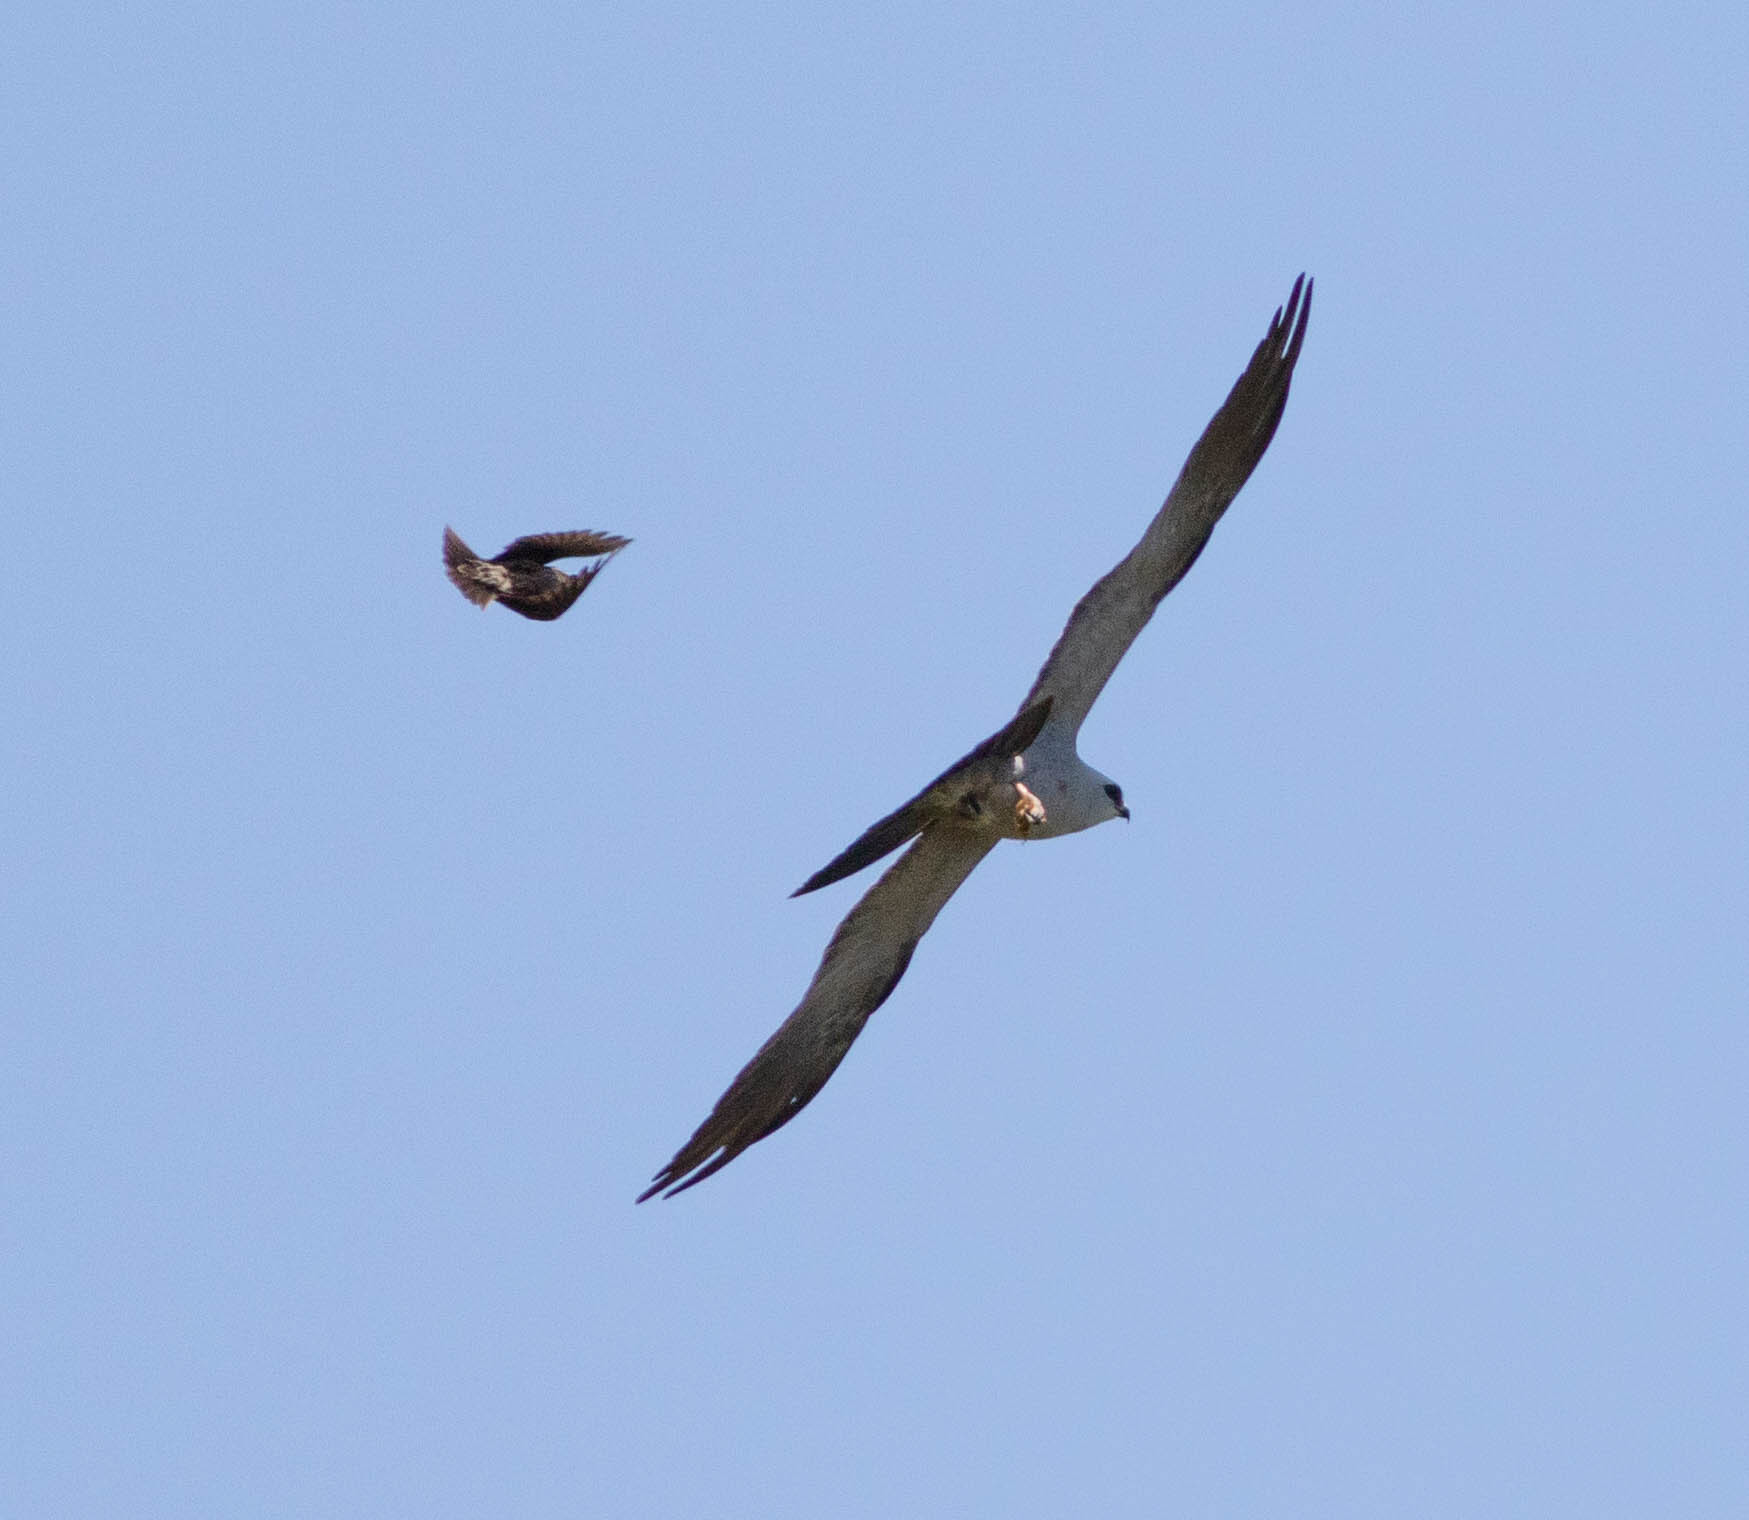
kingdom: Animalia
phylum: Chordata
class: Aves
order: Accipitriformes
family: Accipitridae
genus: Ictinia
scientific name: Ictinia mississippiensis
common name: Mississippi kite
